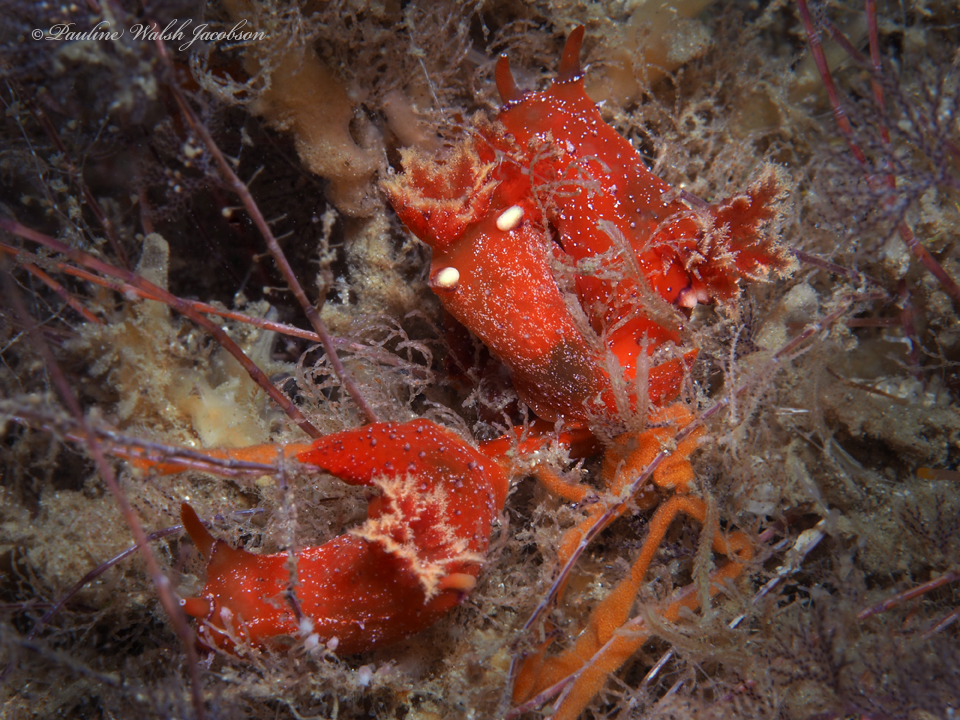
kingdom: Animalia
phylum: Mollusca
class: Gastropoda
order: Nudibranchia
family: Polyceridae
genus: Plocamopherus
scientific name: Plocamopherus lucayensis
